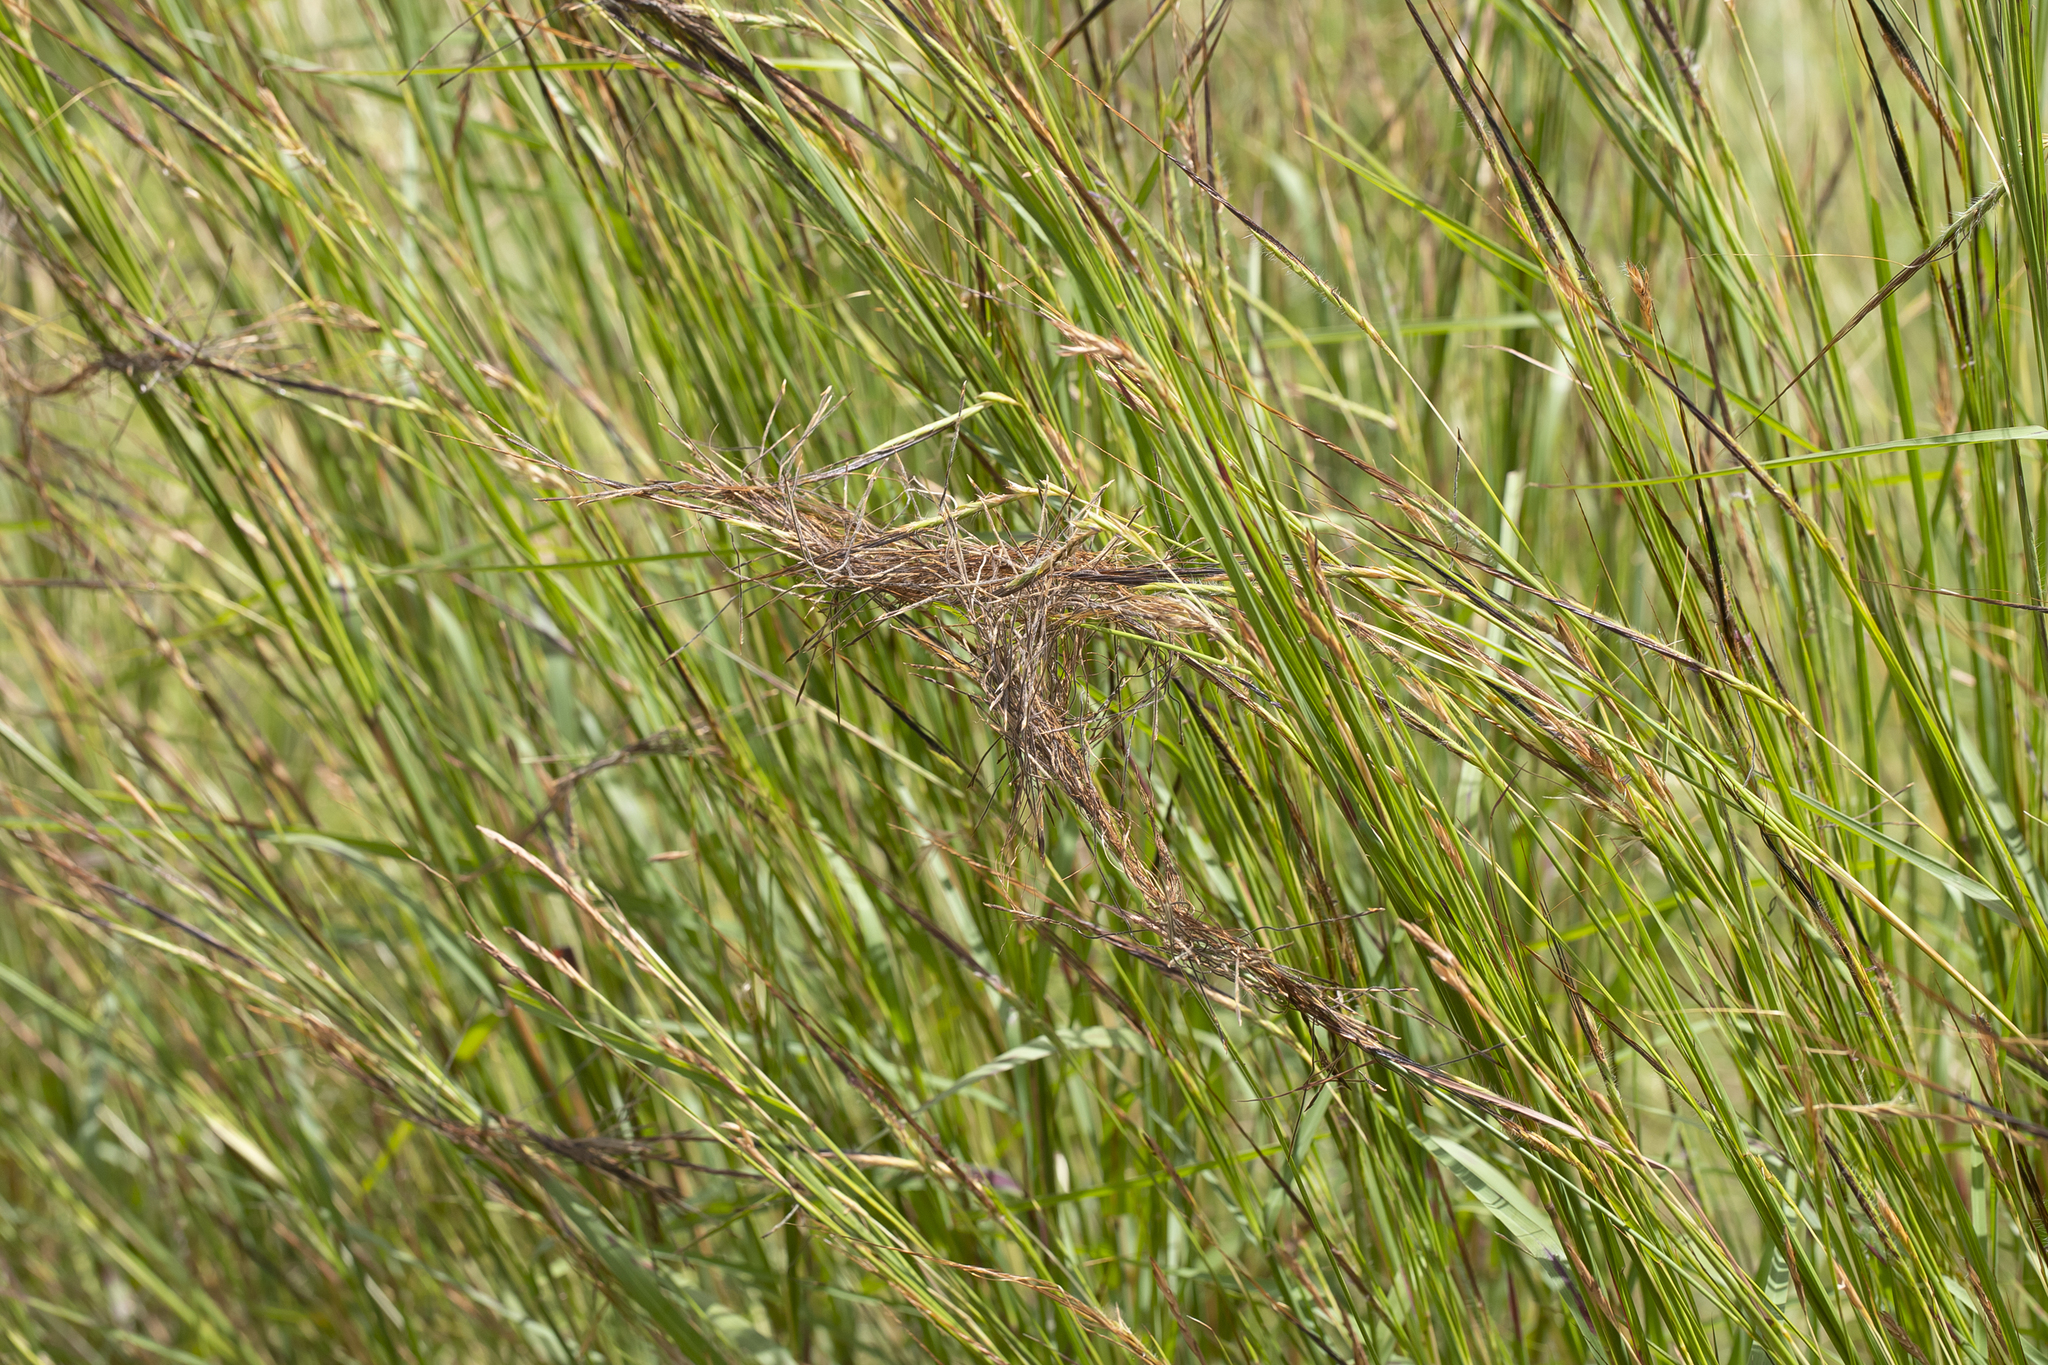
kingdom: Plantae
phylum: Tracheophyta
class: Liliopsida
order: Poales
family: Poaceae
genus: Heteropogon
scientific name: Heteropogon contortus
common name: Tanglehead
